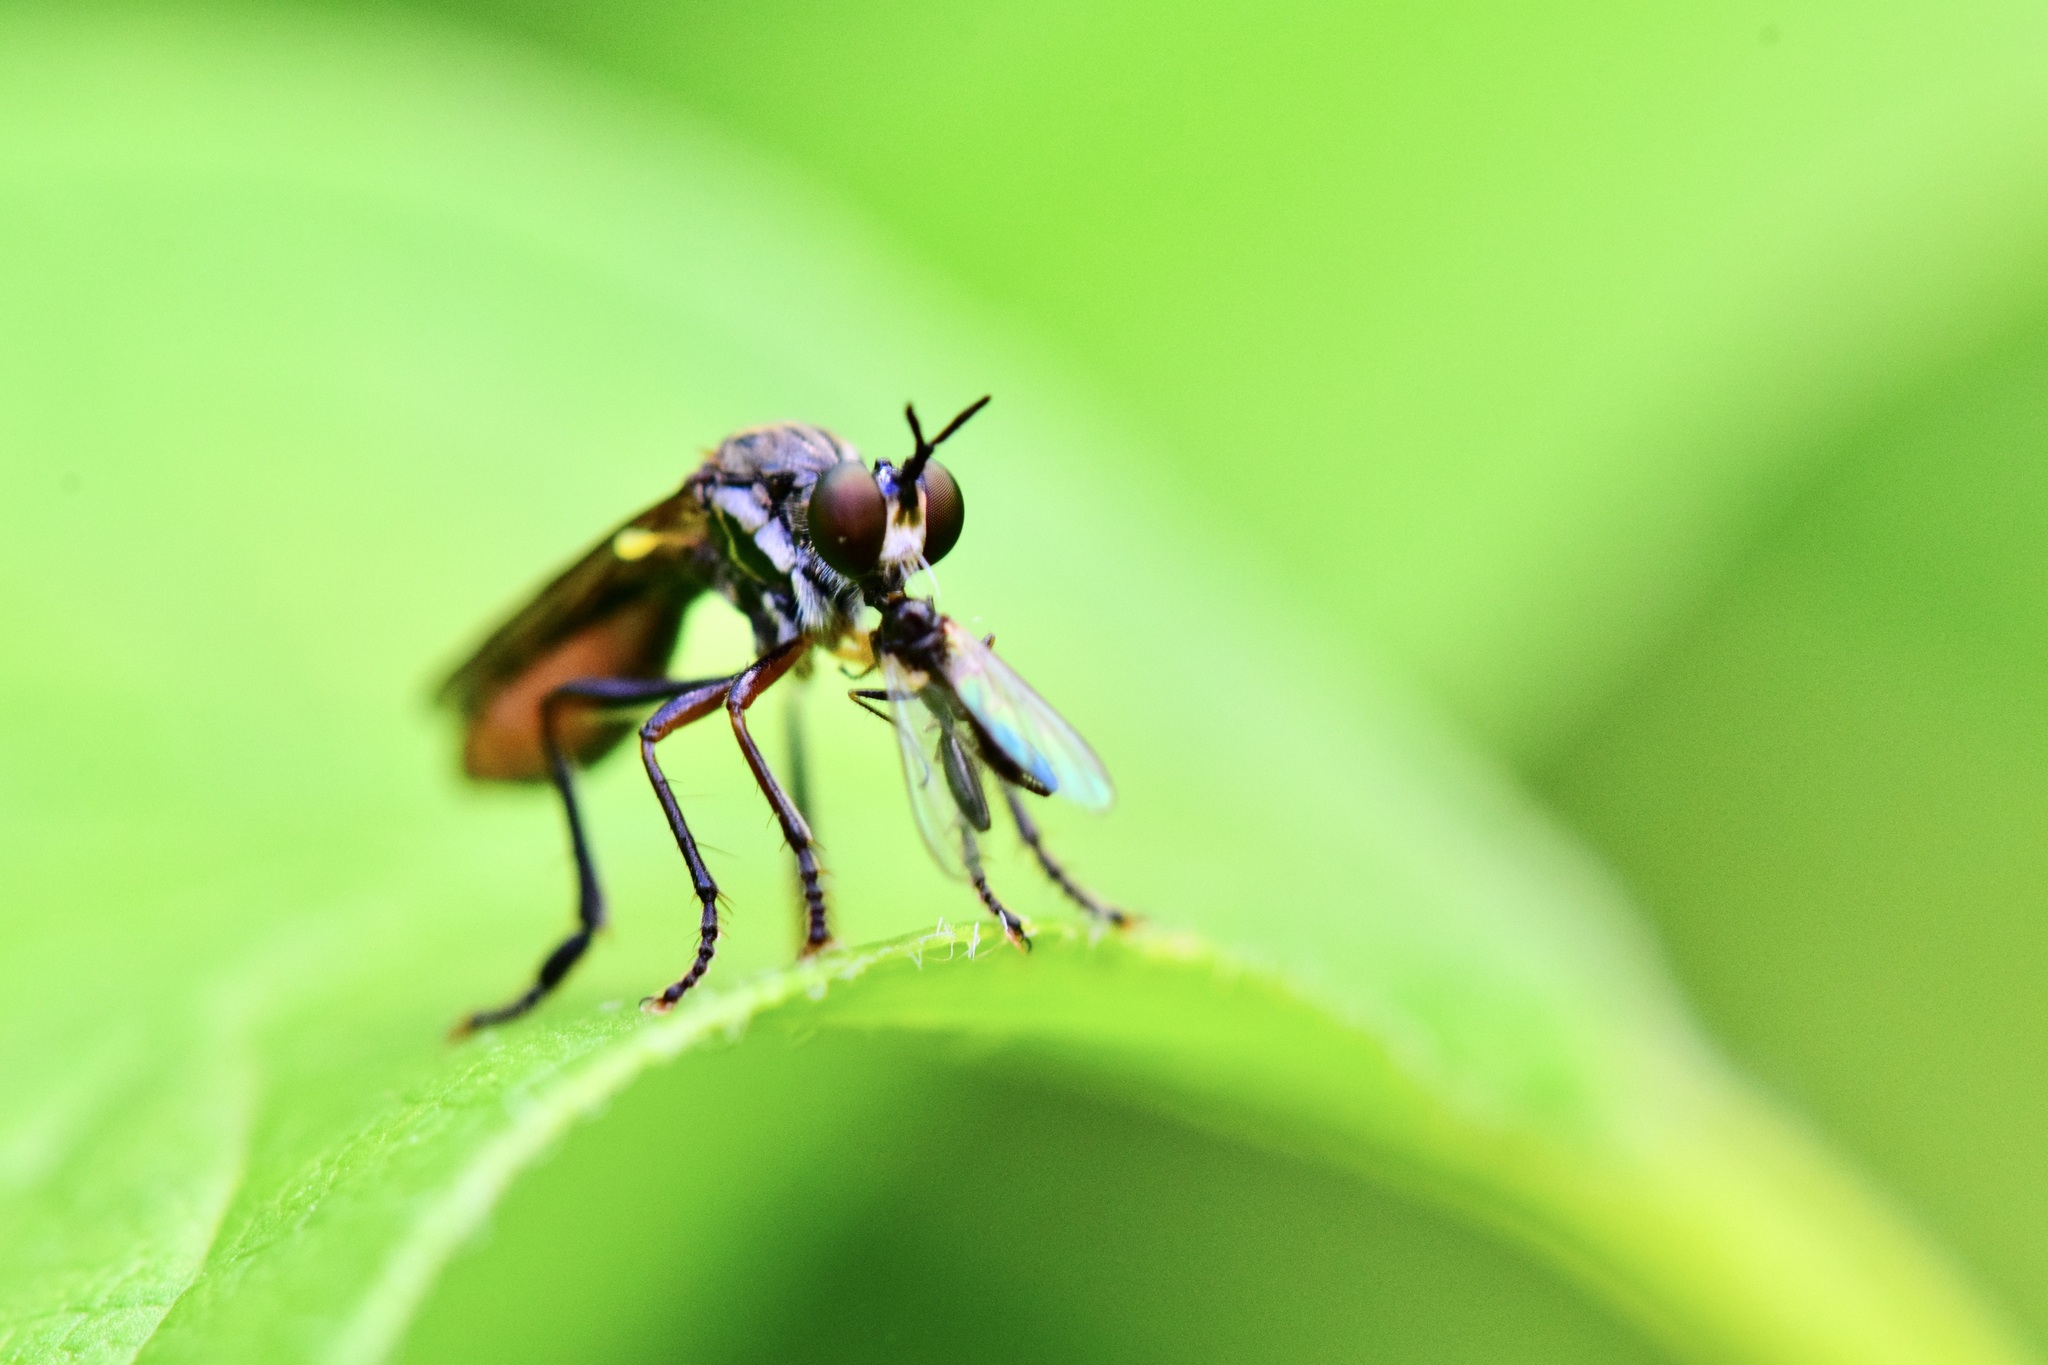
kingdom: Animalia
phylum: Arthropoda
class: Insecta
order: Diptera
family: Asilidae
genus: Dioctria
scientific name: Dioctria hyalipennis
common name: Stripe-legged robberfly
